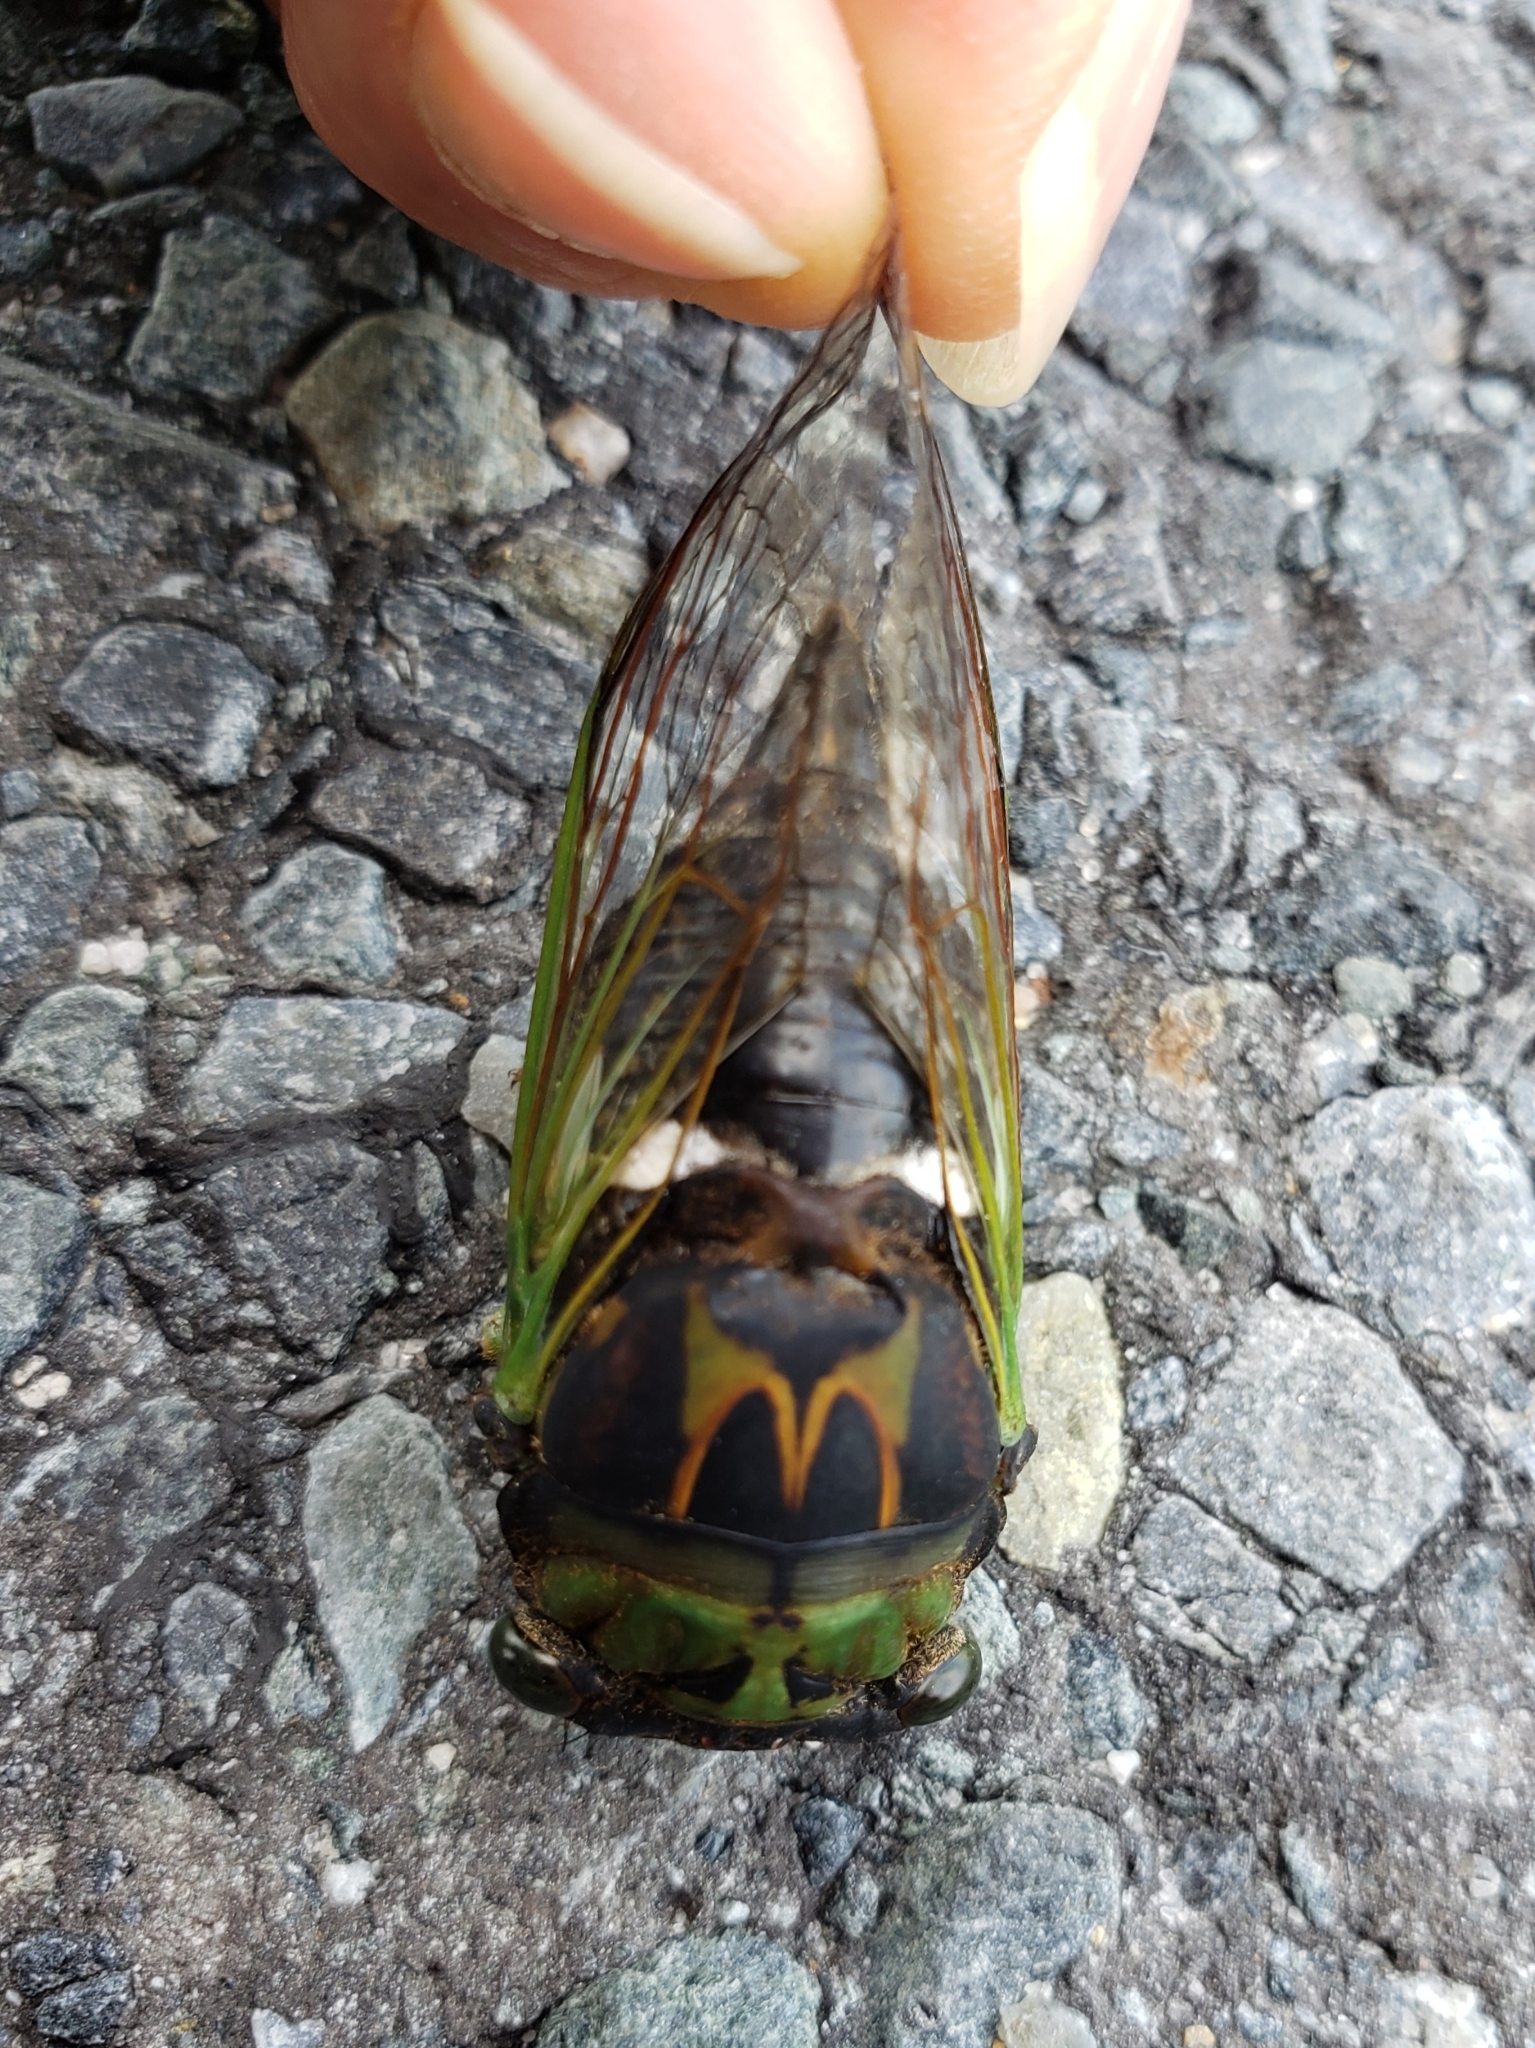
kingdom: Animalia
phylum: Arthropoda
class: Insecta
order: Hemiptera
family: Cicadidae
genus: Neotibicen
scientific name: Neotibicen tibicen
